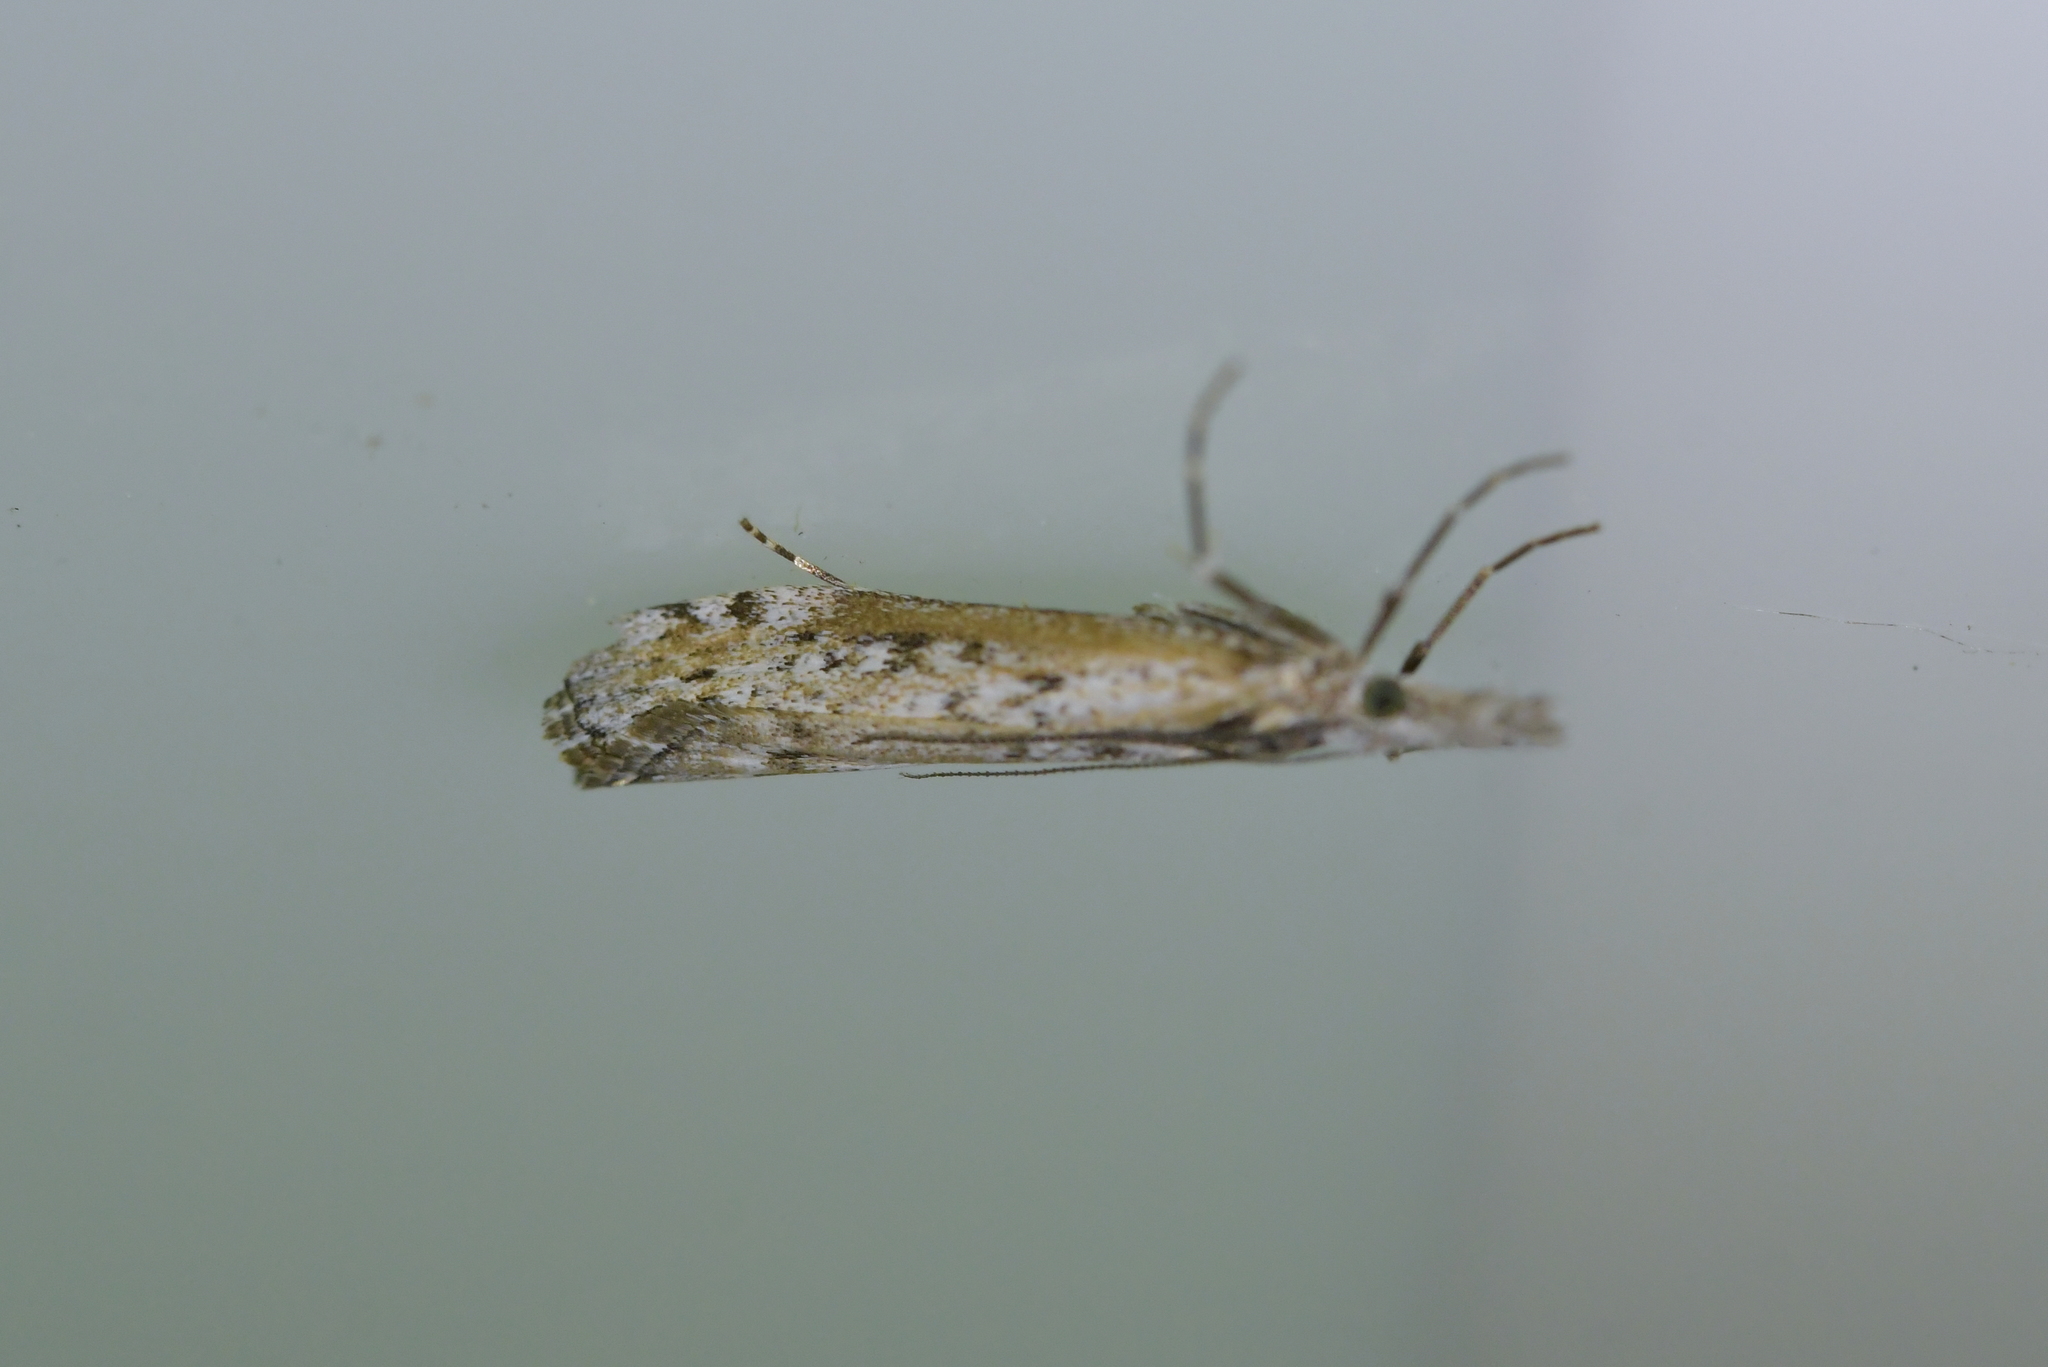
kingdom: Animalia
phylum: Arthropoda
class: Insecta
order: Lepidoptera
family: Crambidae
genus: Orocrambus
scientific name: Orocrambus cyclopicus
